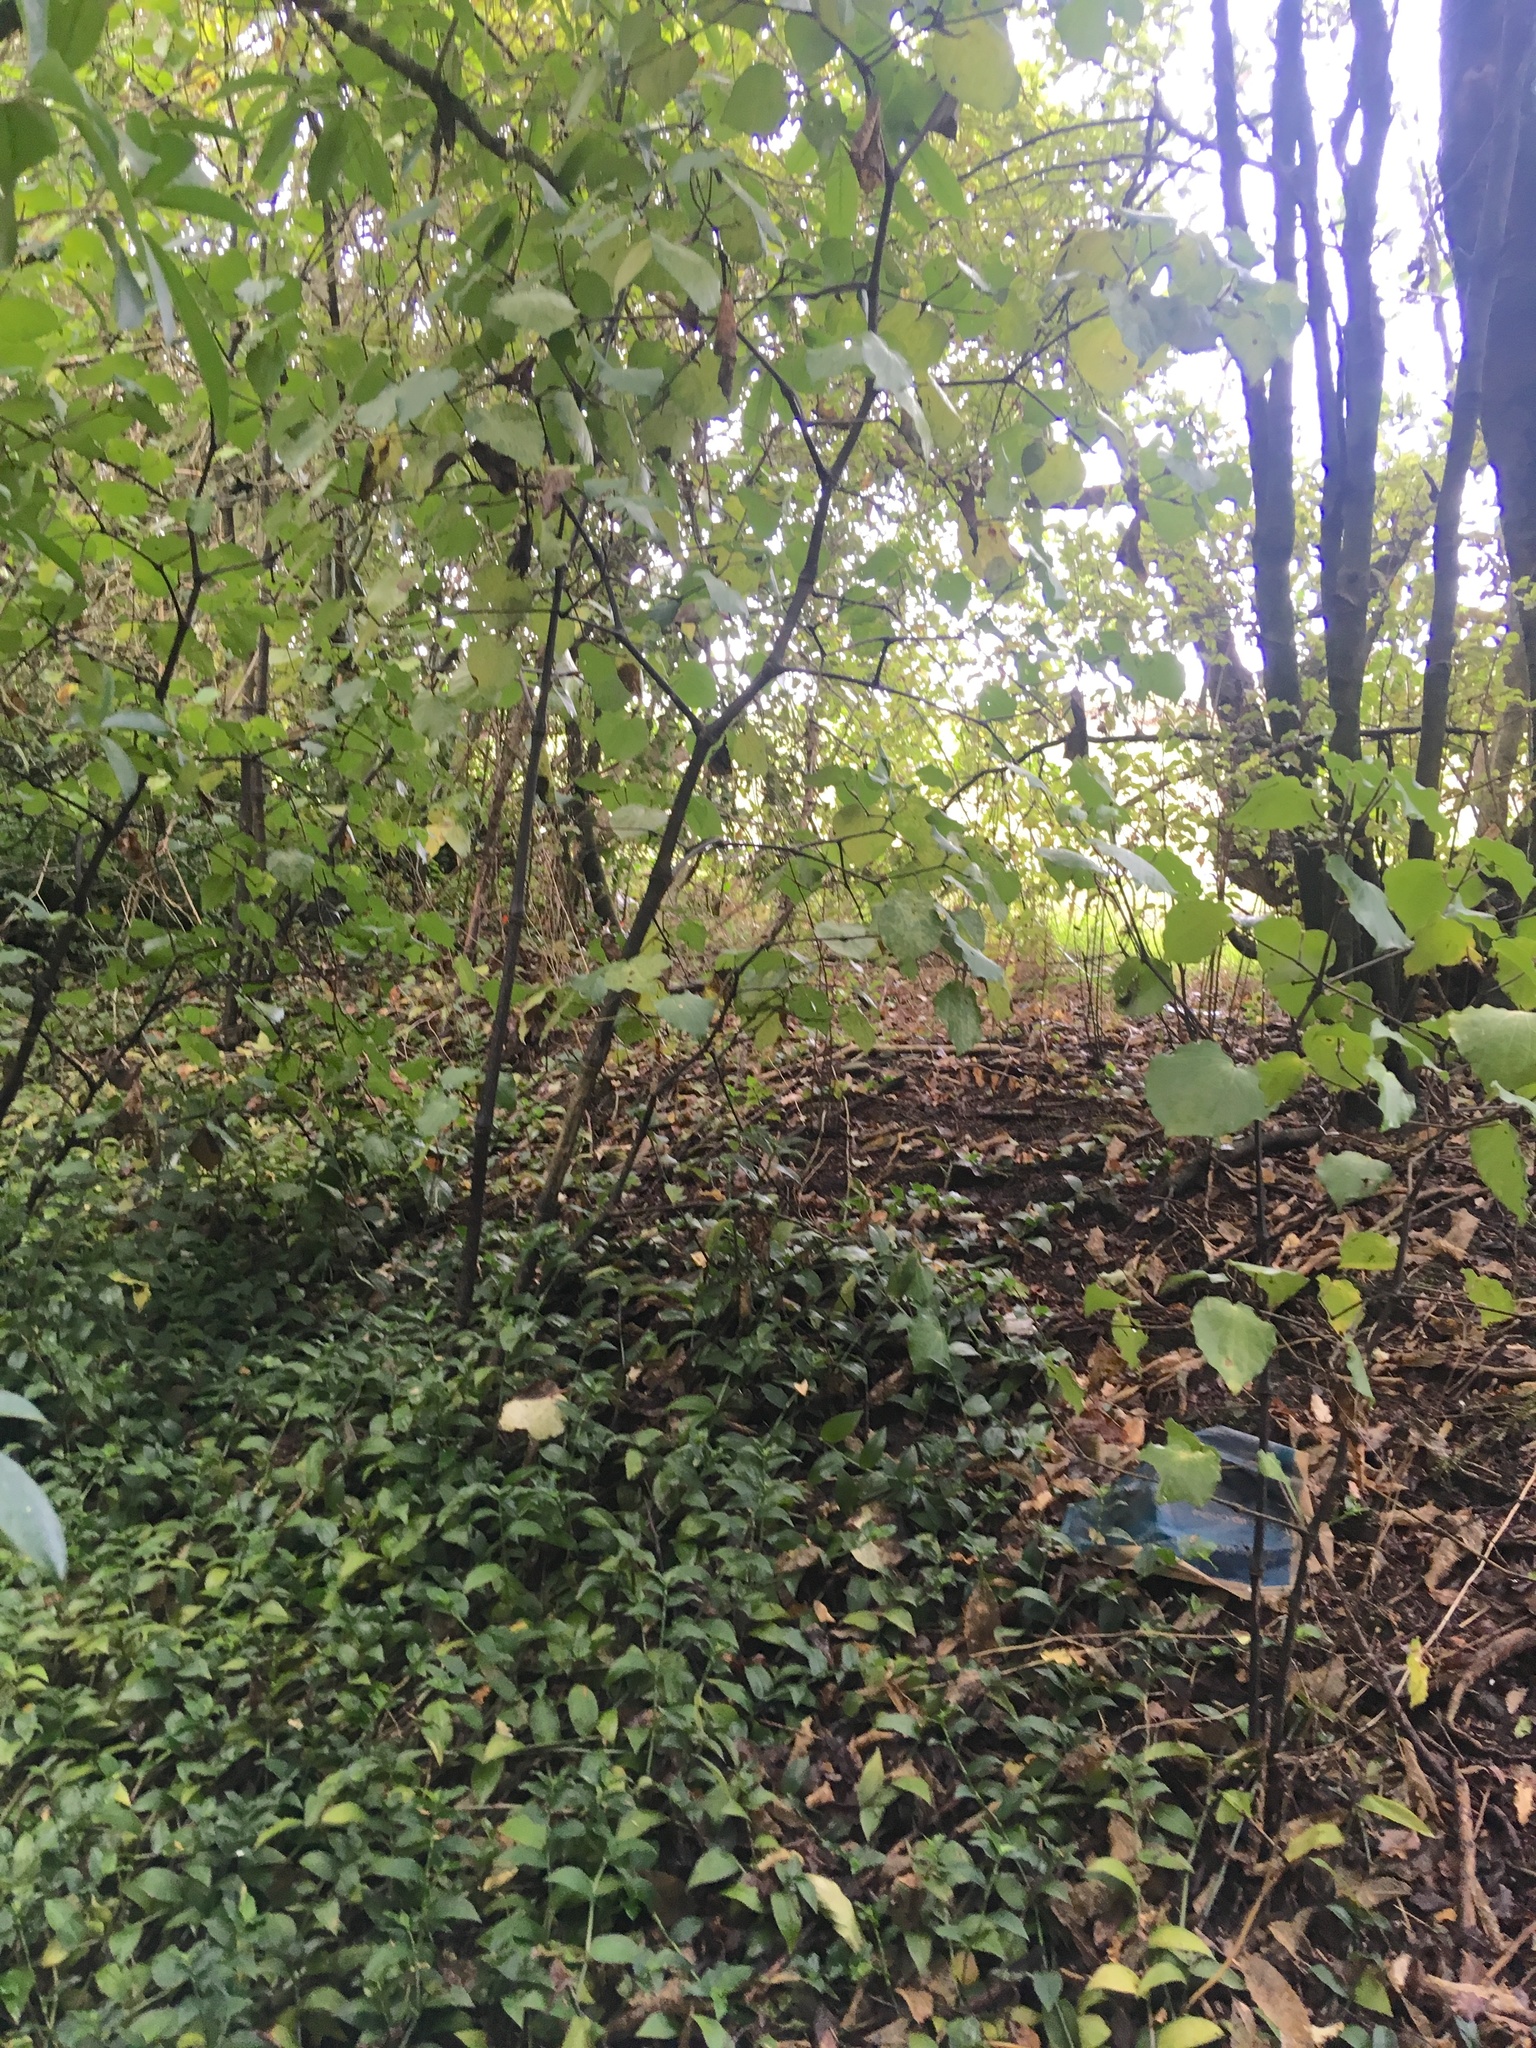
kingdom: Plantae
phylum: Tracheophyta
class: Magnoliopsida
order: Piperales
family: Piperaceae
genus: Macropiper
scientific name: Macropiper excelsum
